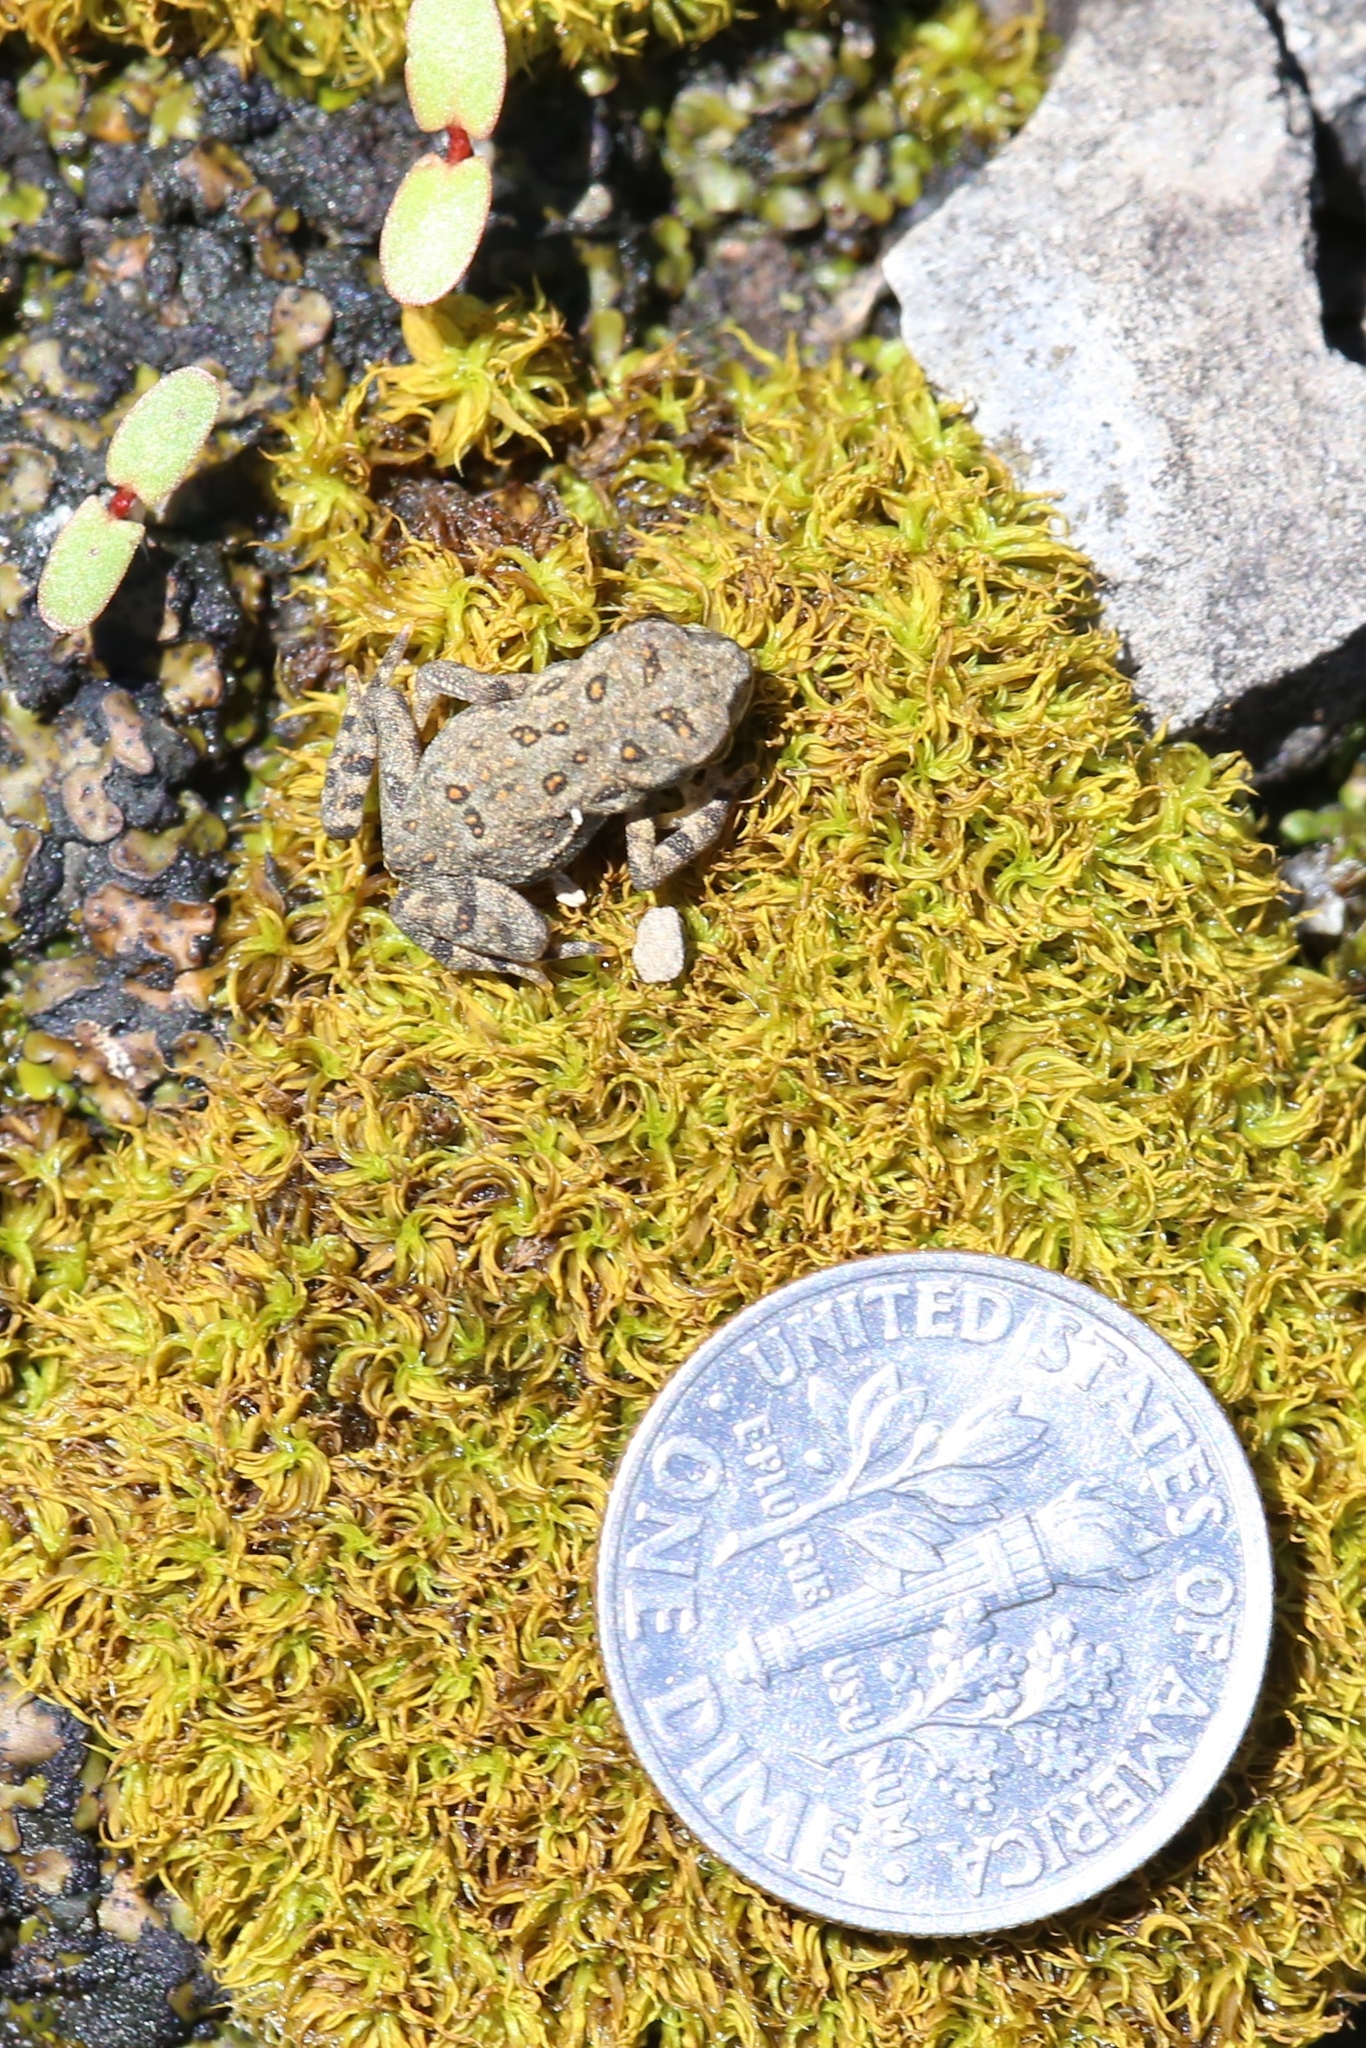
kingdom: Animalia
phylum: Chordata
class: Amphibia
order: Anura
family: Bufonidae
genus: Anaxyrus
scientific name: Anaxyrus americanus
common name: American toad
